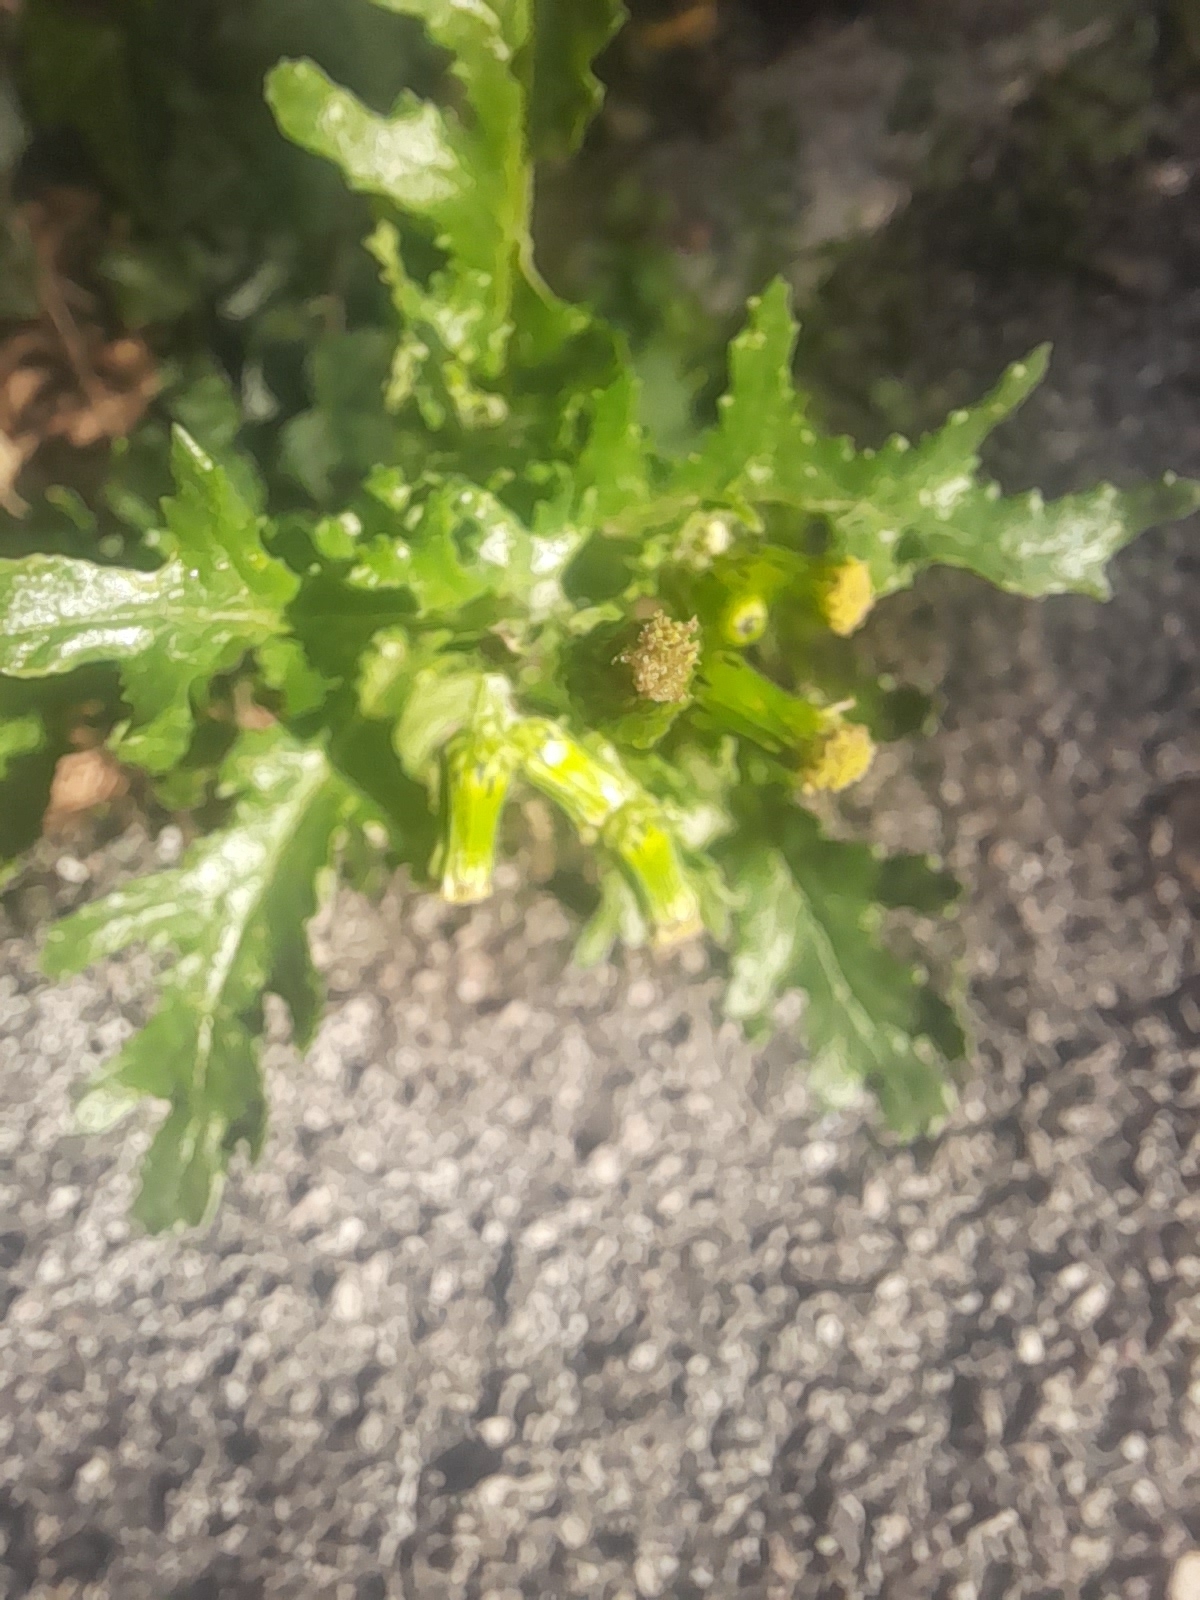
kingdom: Plantae
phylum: Tracheophyta
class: Magnoliopsida
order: Asterales
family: Asteraceae
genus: Senecio
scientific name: Senecio vulgaris
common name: Old-man-in-the-spring
